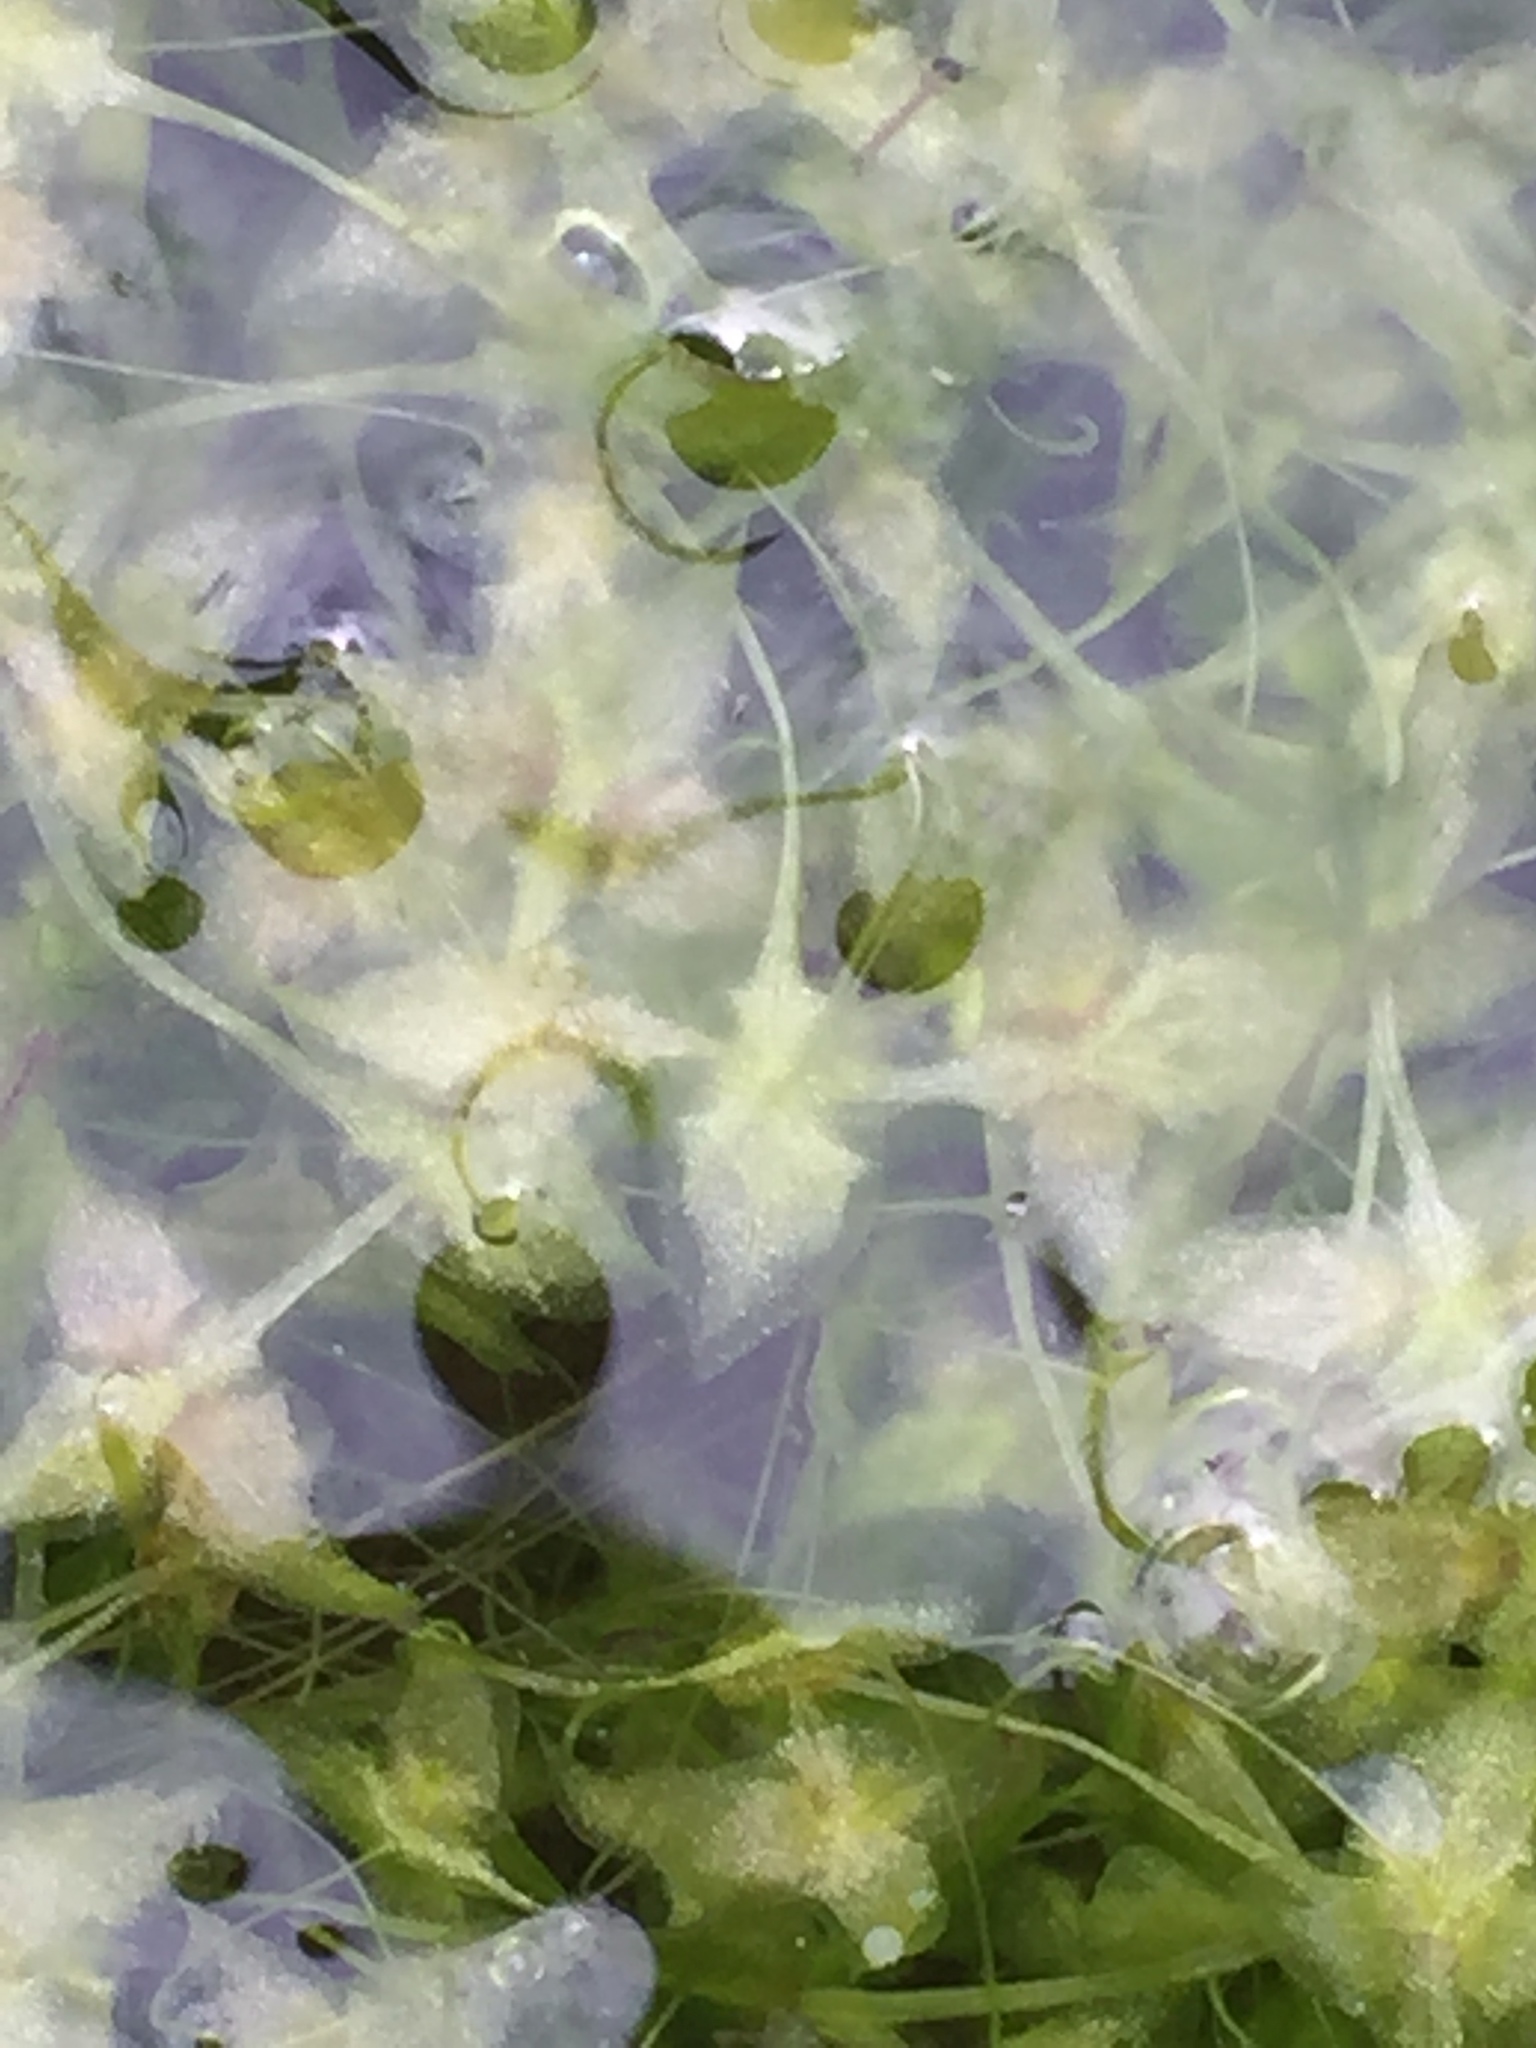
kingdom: Plantae
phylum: Tracheophyta
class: Liliopsida
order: Alismatales
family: Araceae
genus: Lemna
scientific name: Lemna trisulca
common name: Ivy-leaved duckweed
